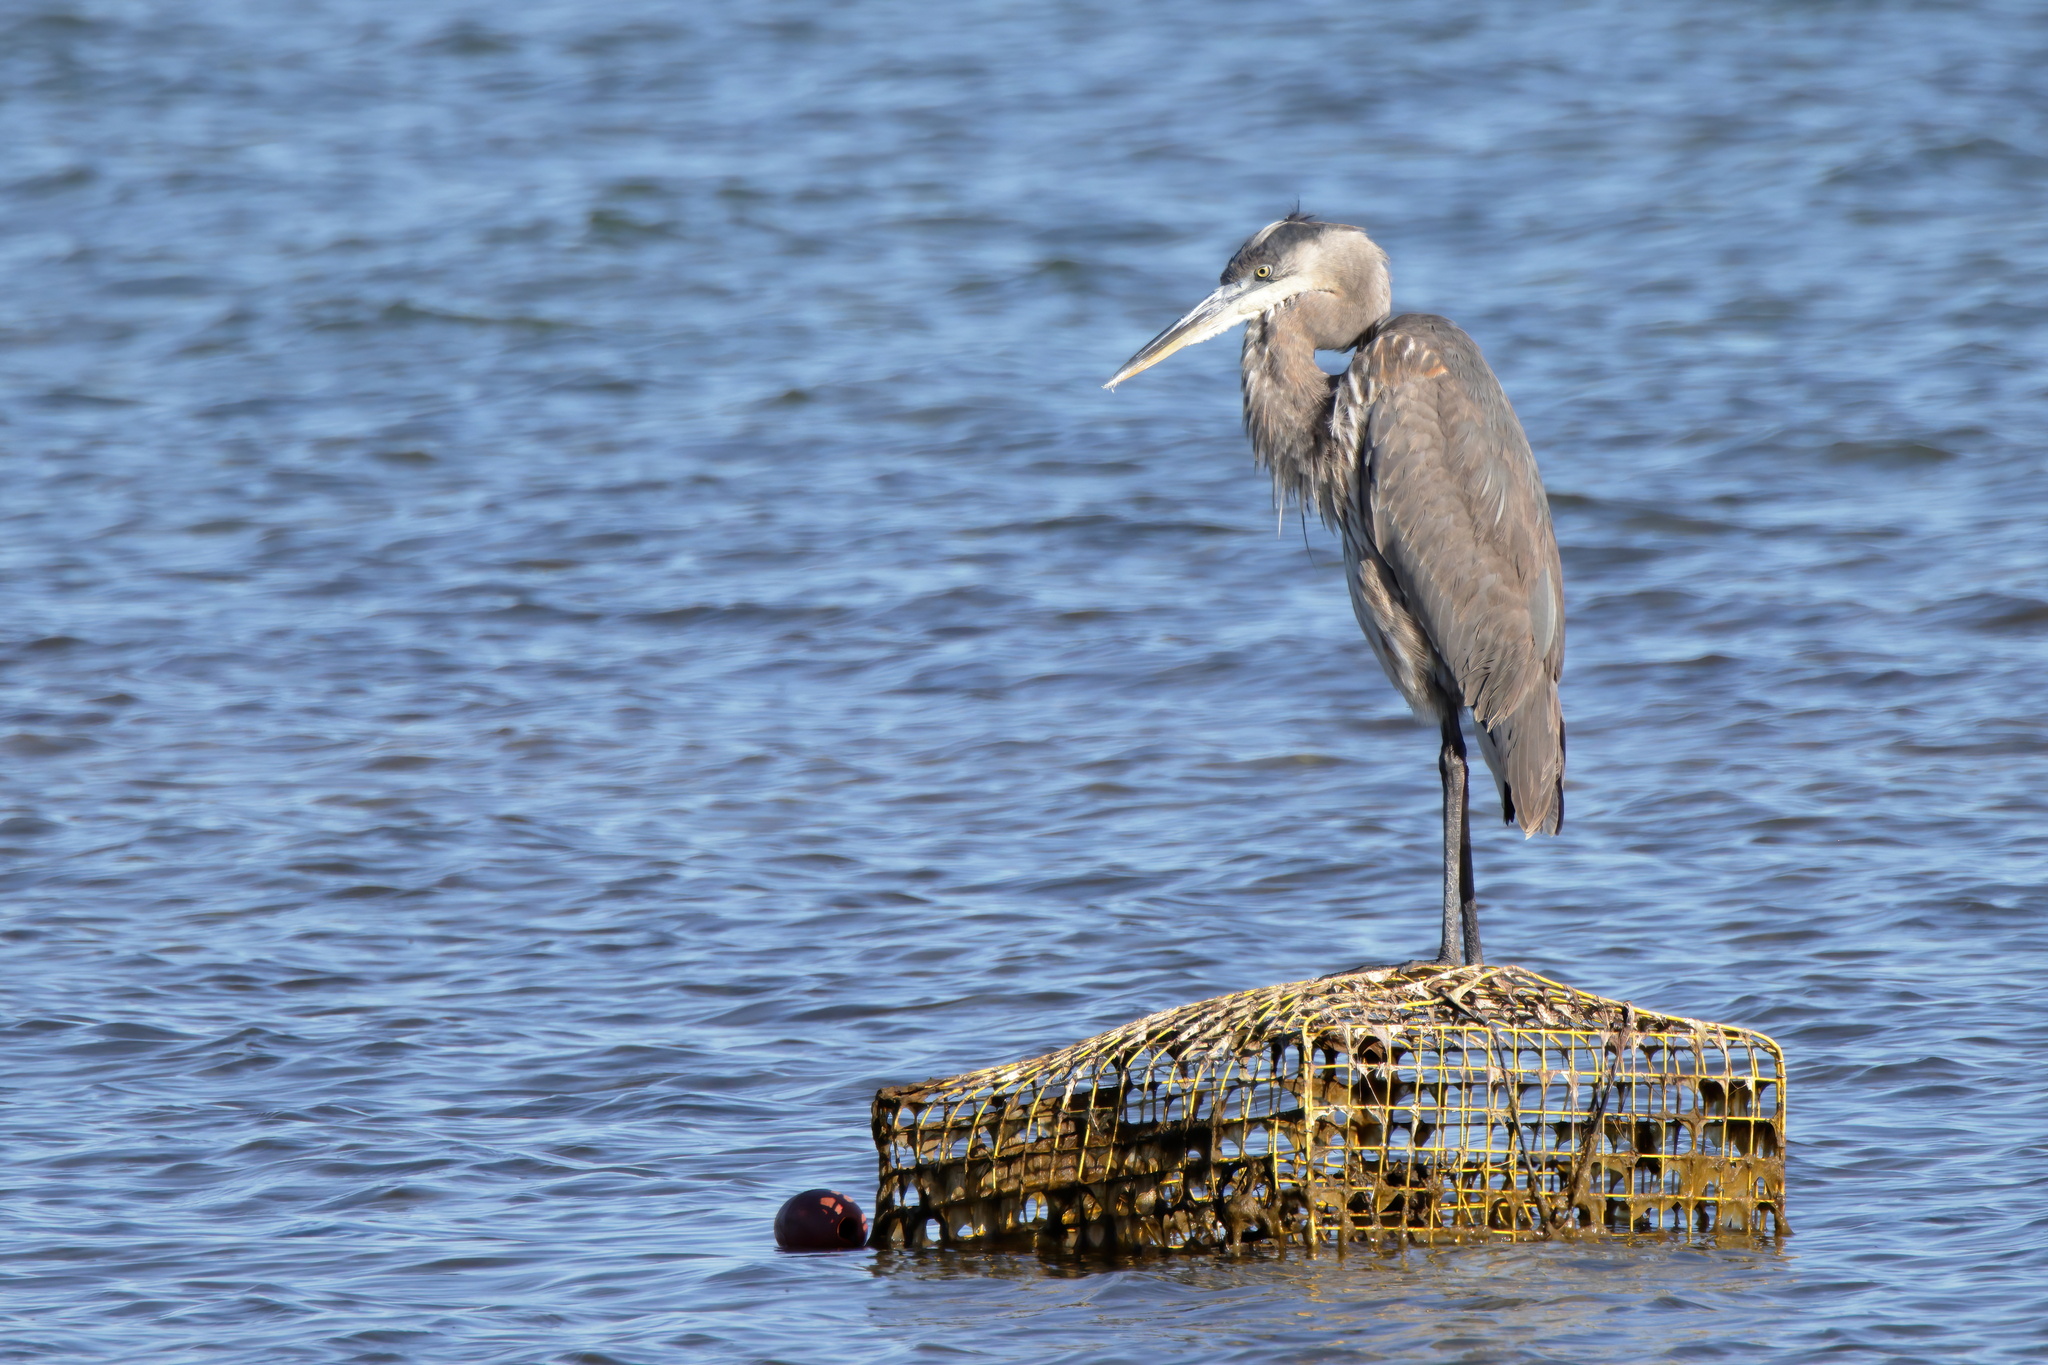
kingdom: Animalia
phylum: Chordata
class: Aves
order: Pelecaniformes
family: Ardeidae
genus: Ardea
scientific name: Ardea herodias
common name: Great blue heron
